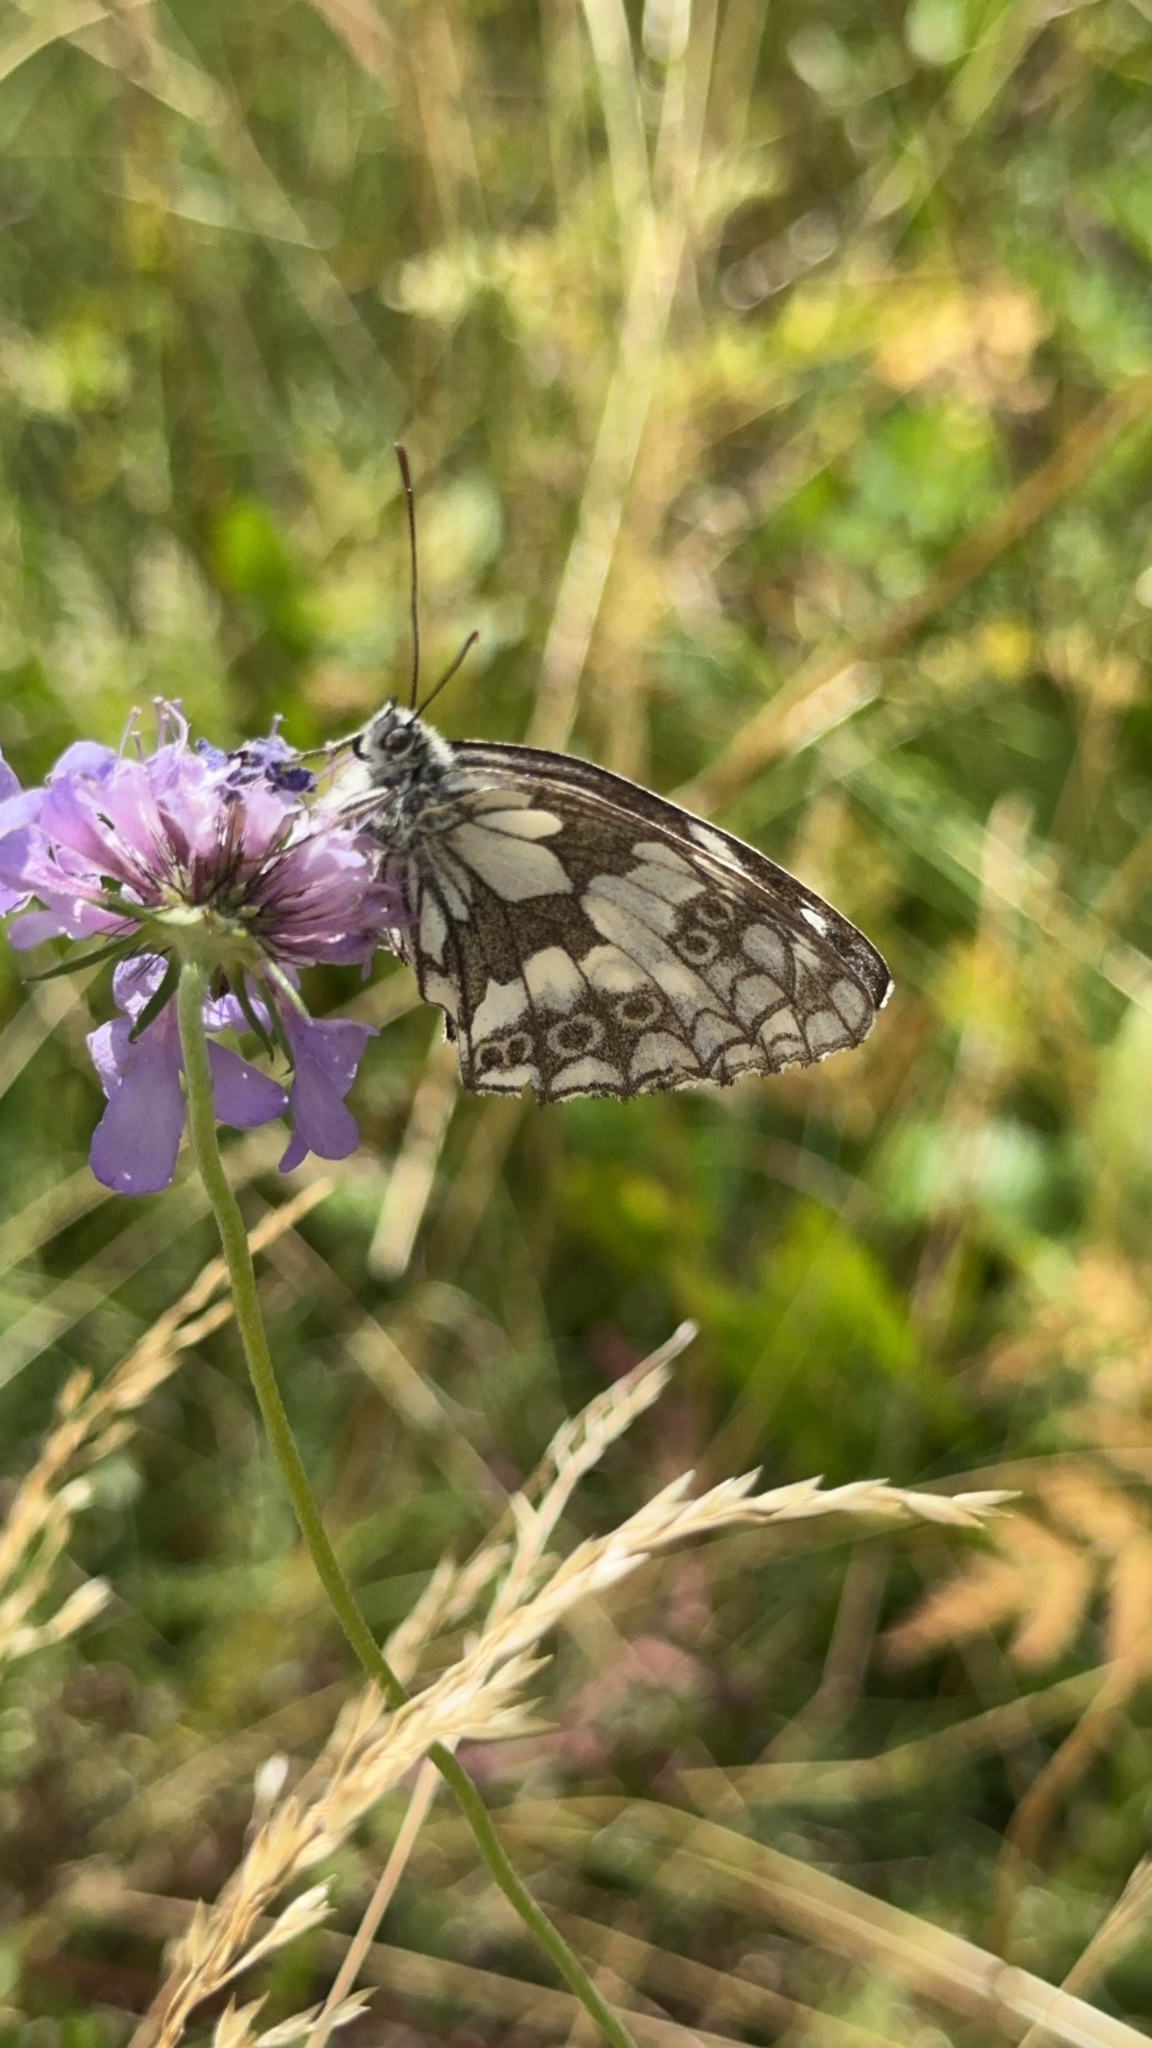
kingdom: Animalia
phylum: Arthropoda
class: Insecta
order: Lepidoptera
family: Nymphalidae
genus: Melanargia
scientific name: Melanargia galathea
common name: Marbled white
